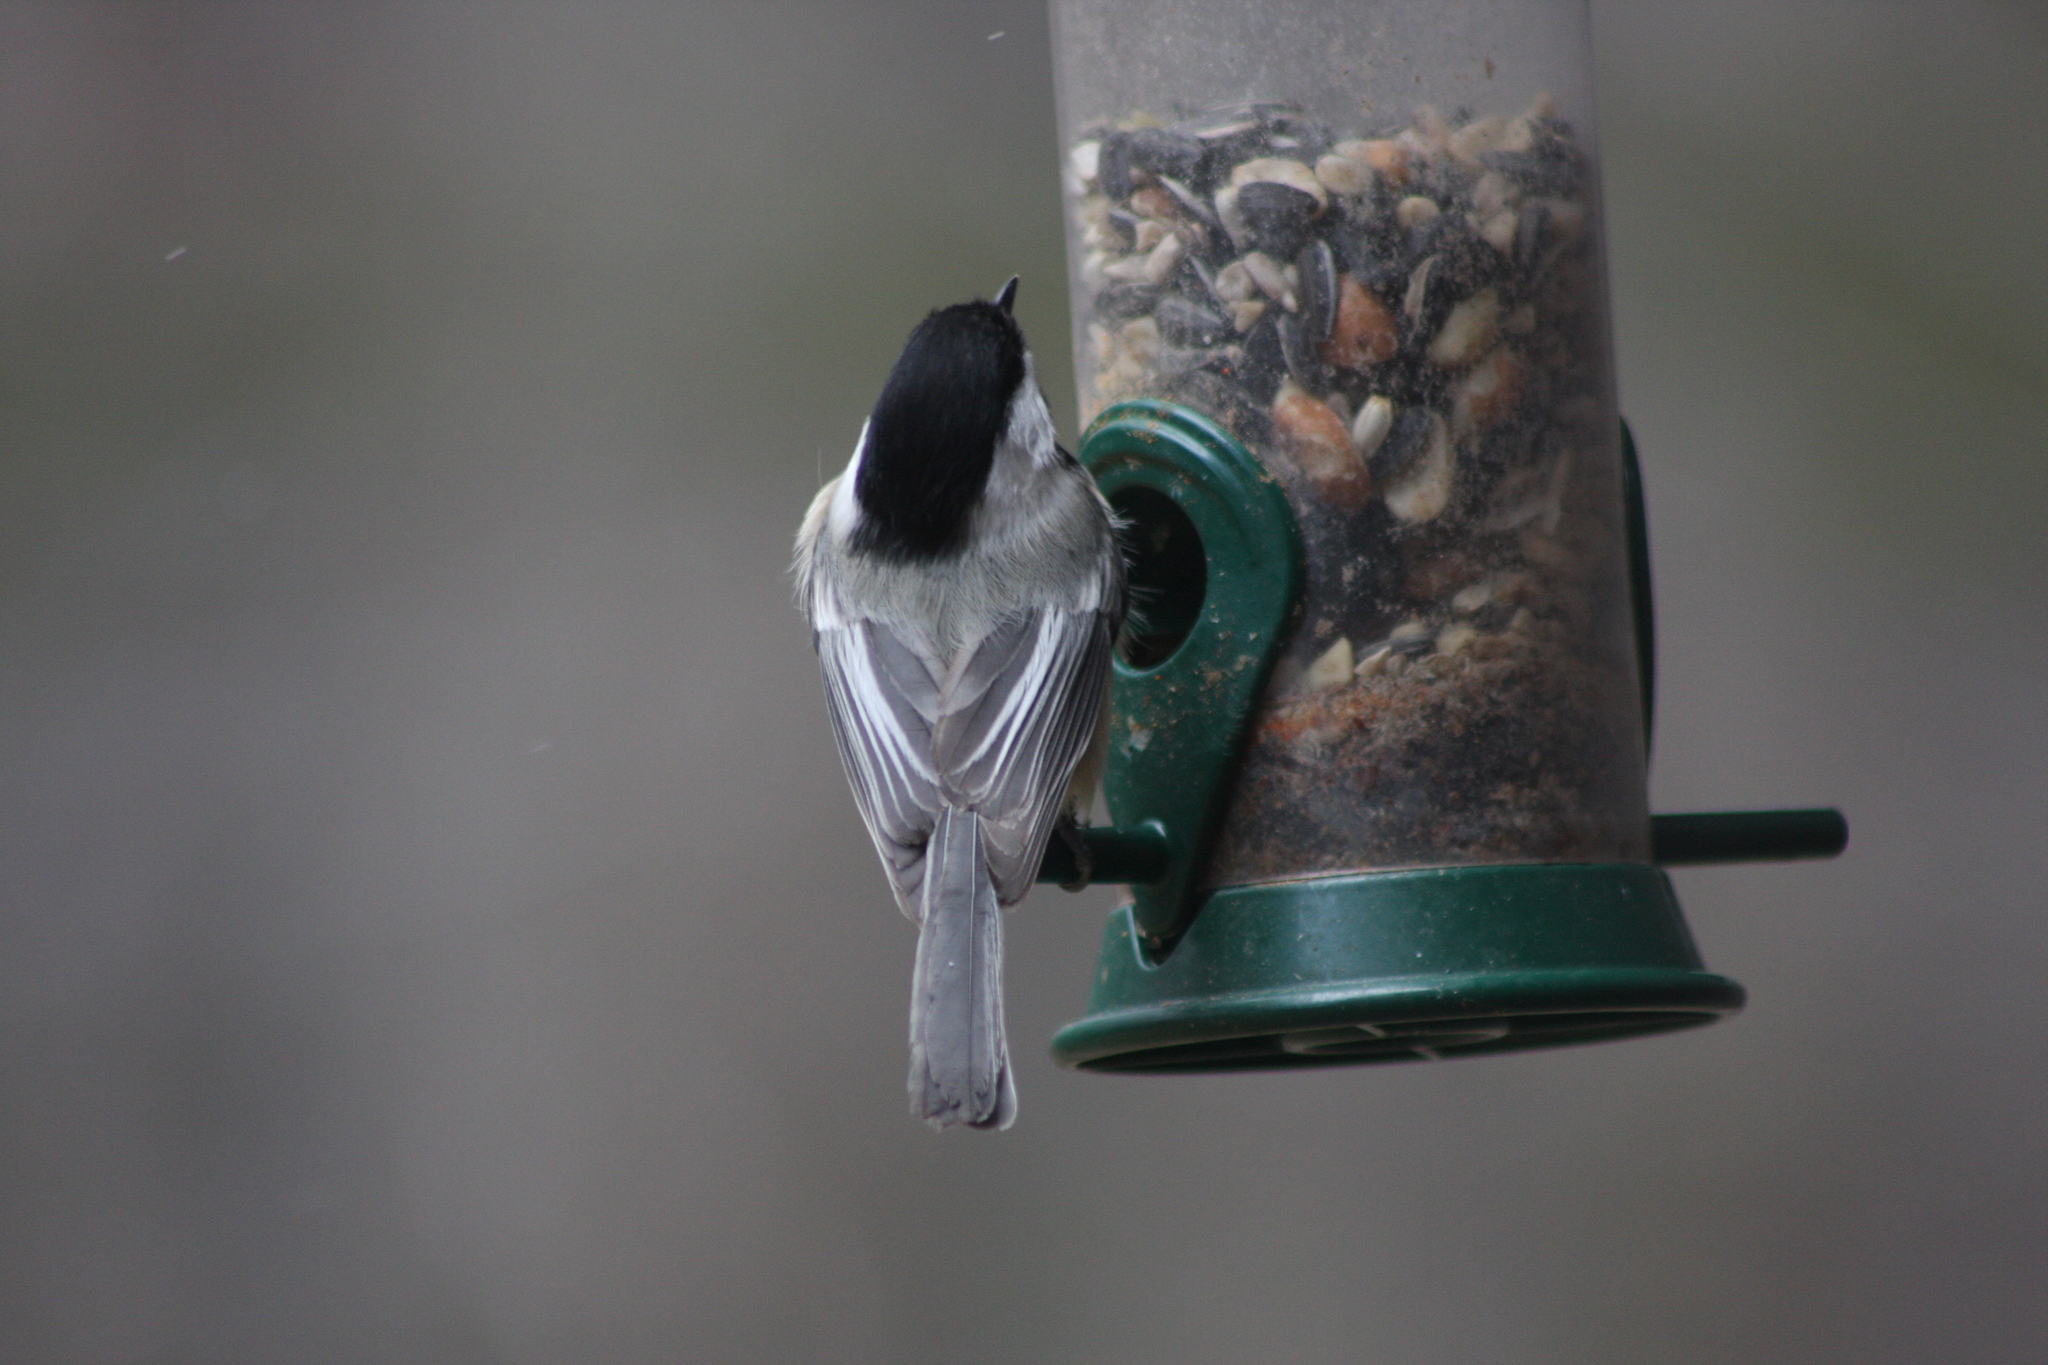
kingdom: Animalia
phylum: Chordata
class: Aves
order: Passeriformes
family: Paridae
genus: Poecile
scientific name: Poecile atricapillus
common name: Black-capped chickadee
